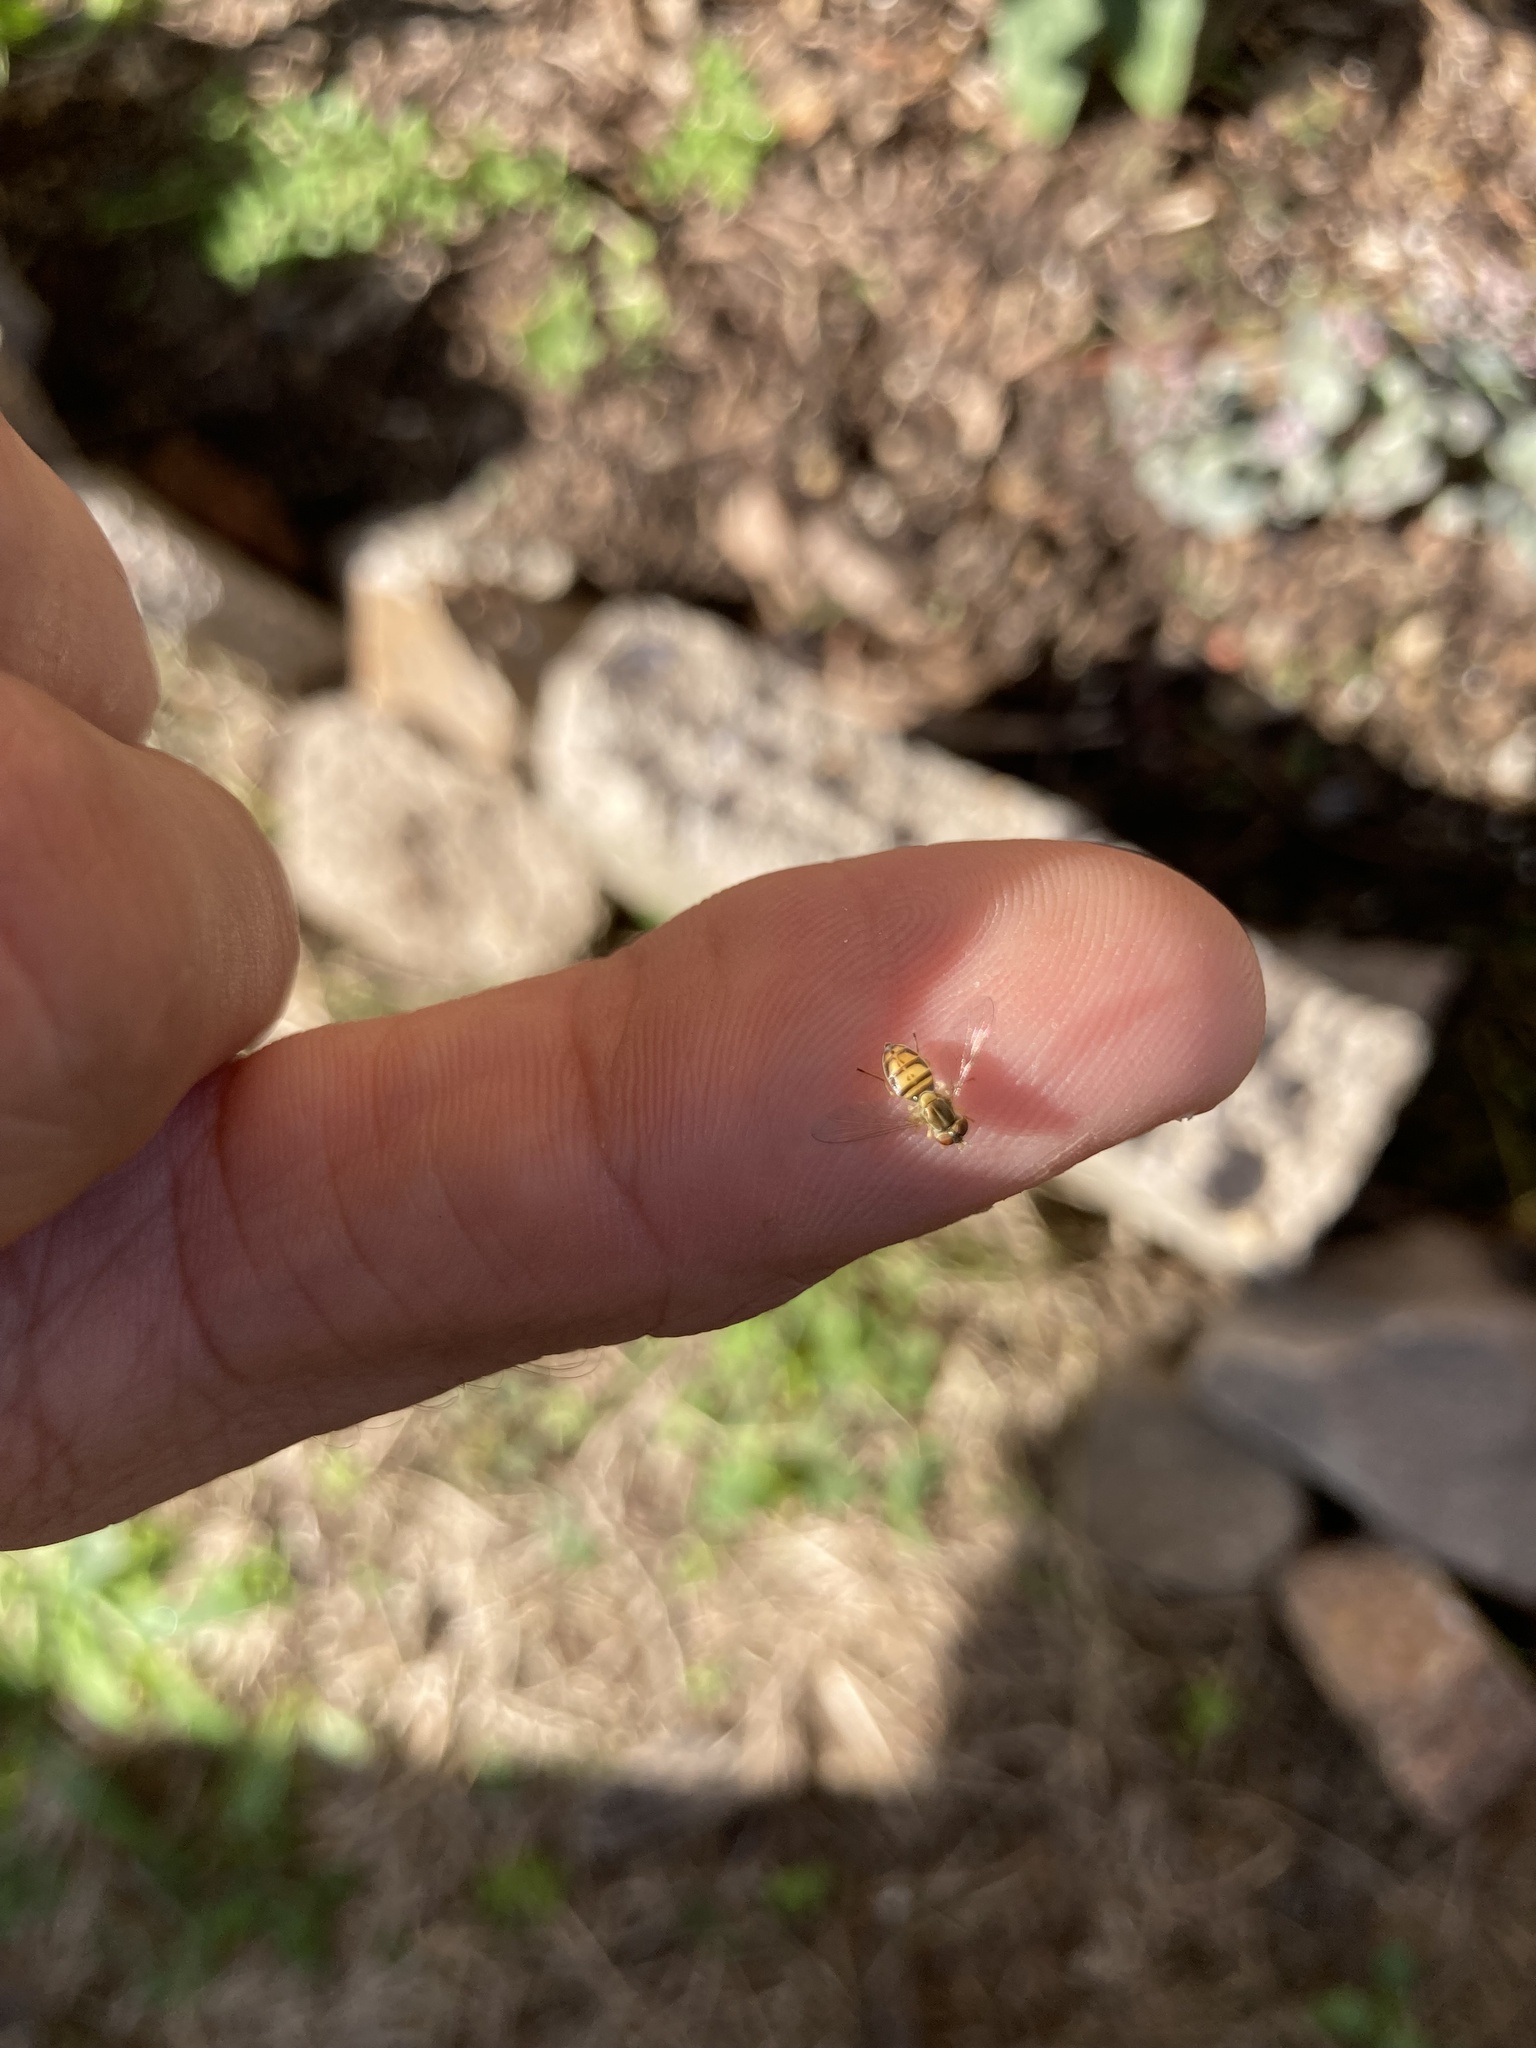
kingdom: Animalia
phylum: Arthropoda
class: Insecta
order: Diptera
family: Syrphidae
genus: Toxomerus
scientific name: Toxomerus marginatus
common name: Syrphid fly
